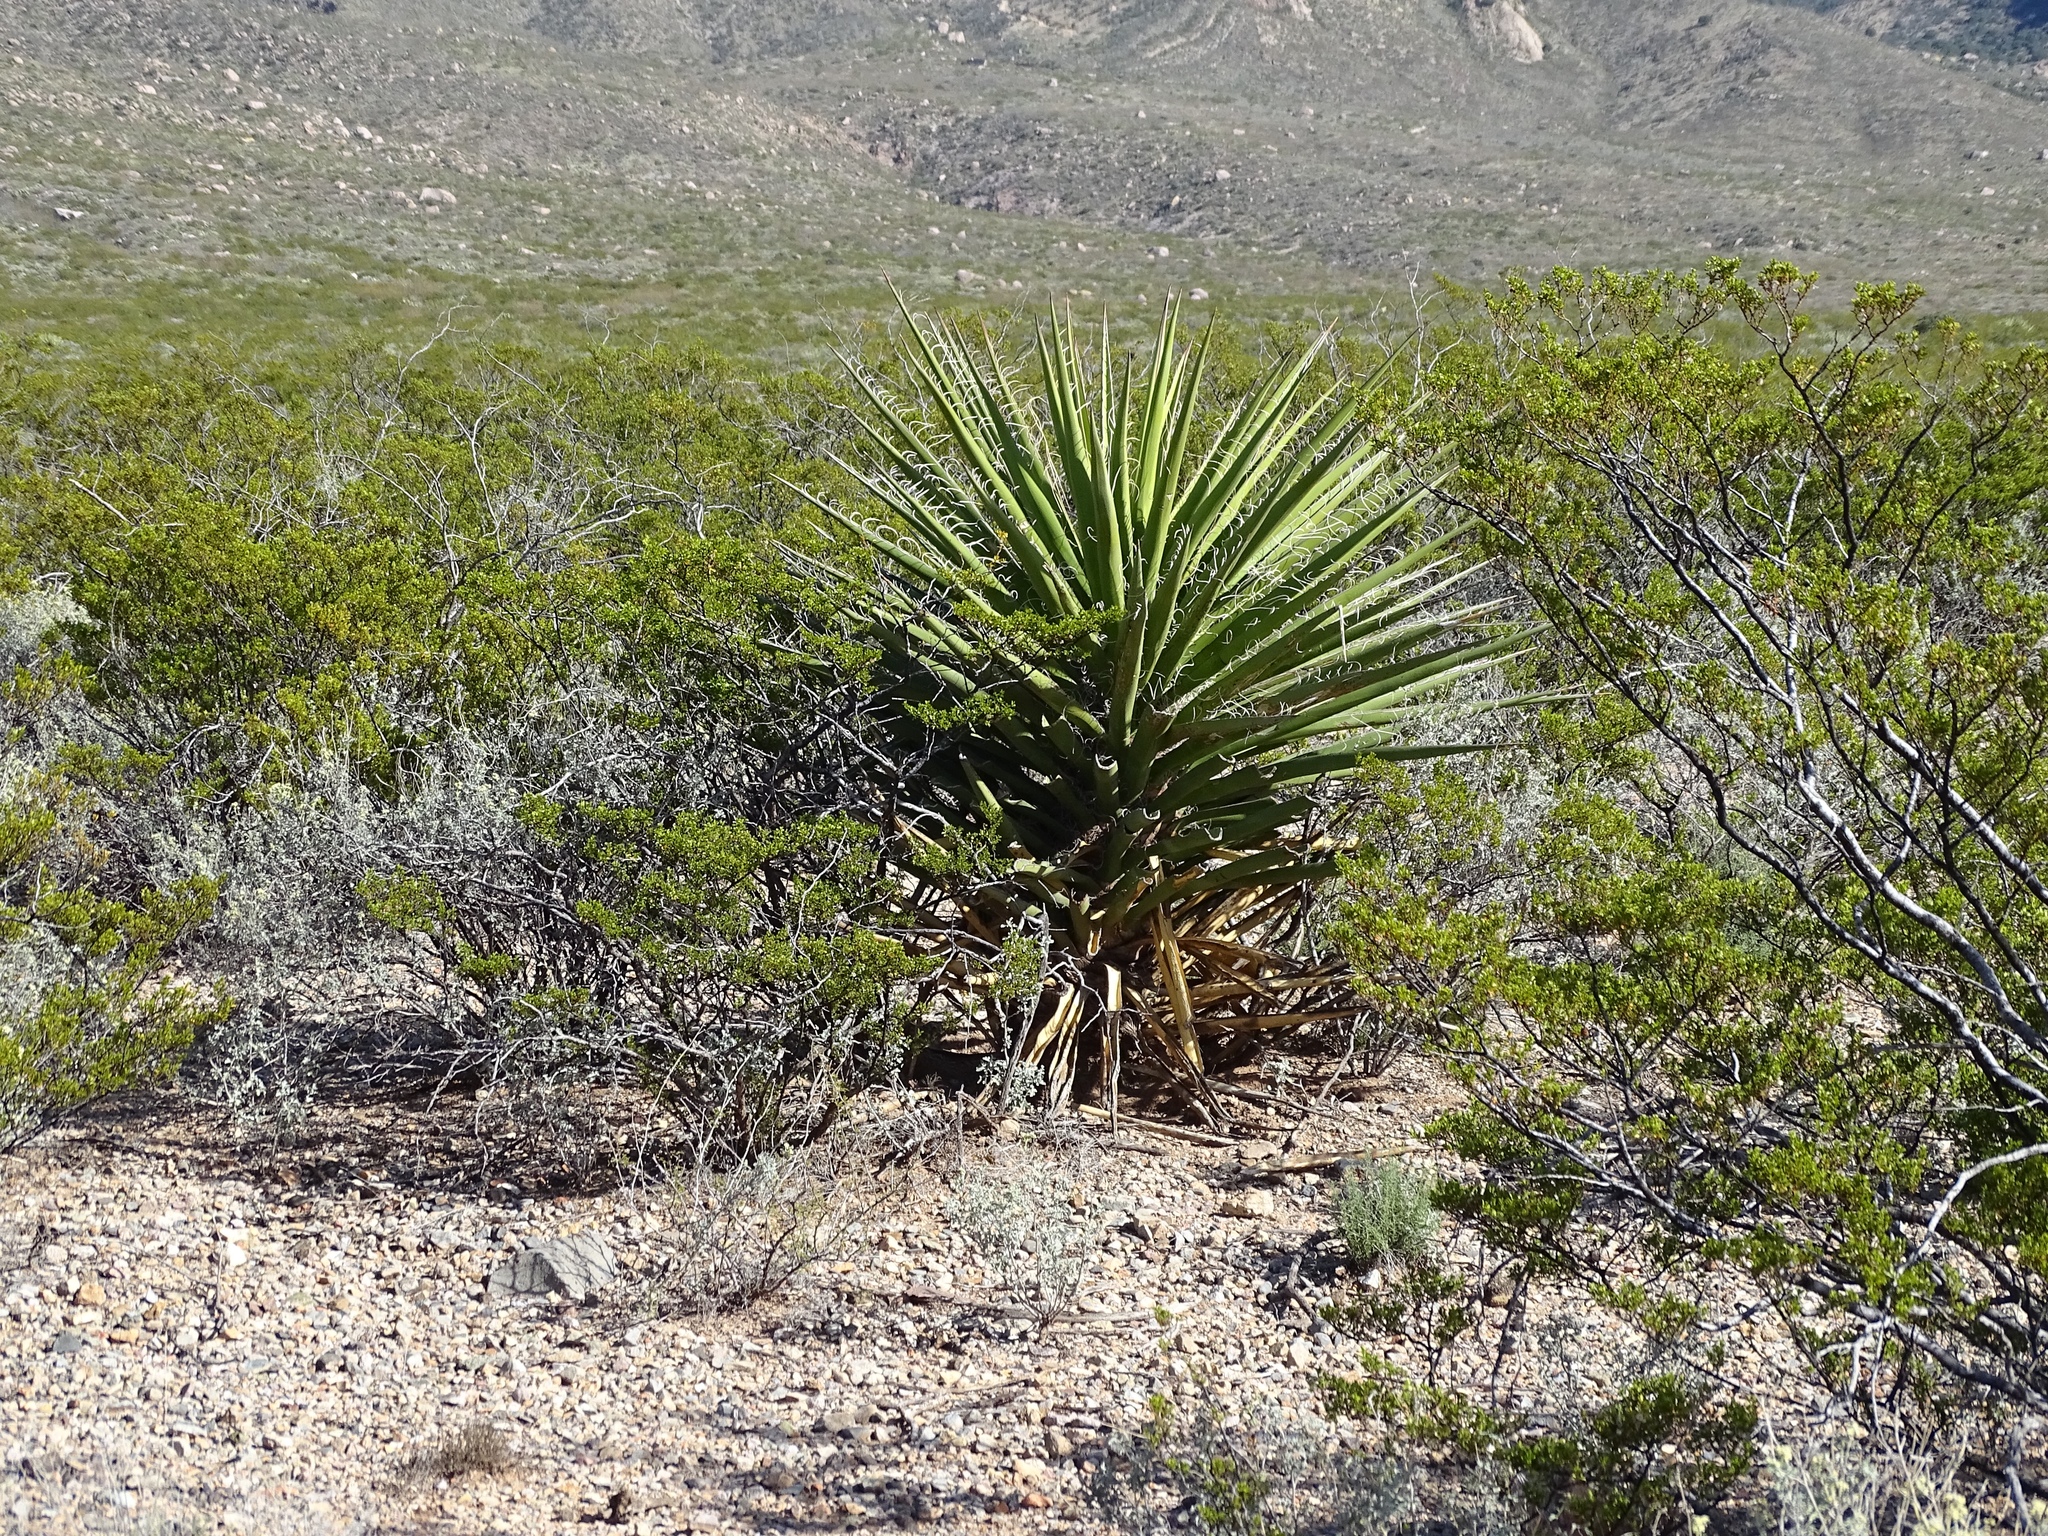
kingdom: Plantae
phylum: Tracheophyta
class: Liliopsida
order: Asparagales
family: Asparagaceae
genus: Yucca
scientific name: Yucca treculiana
